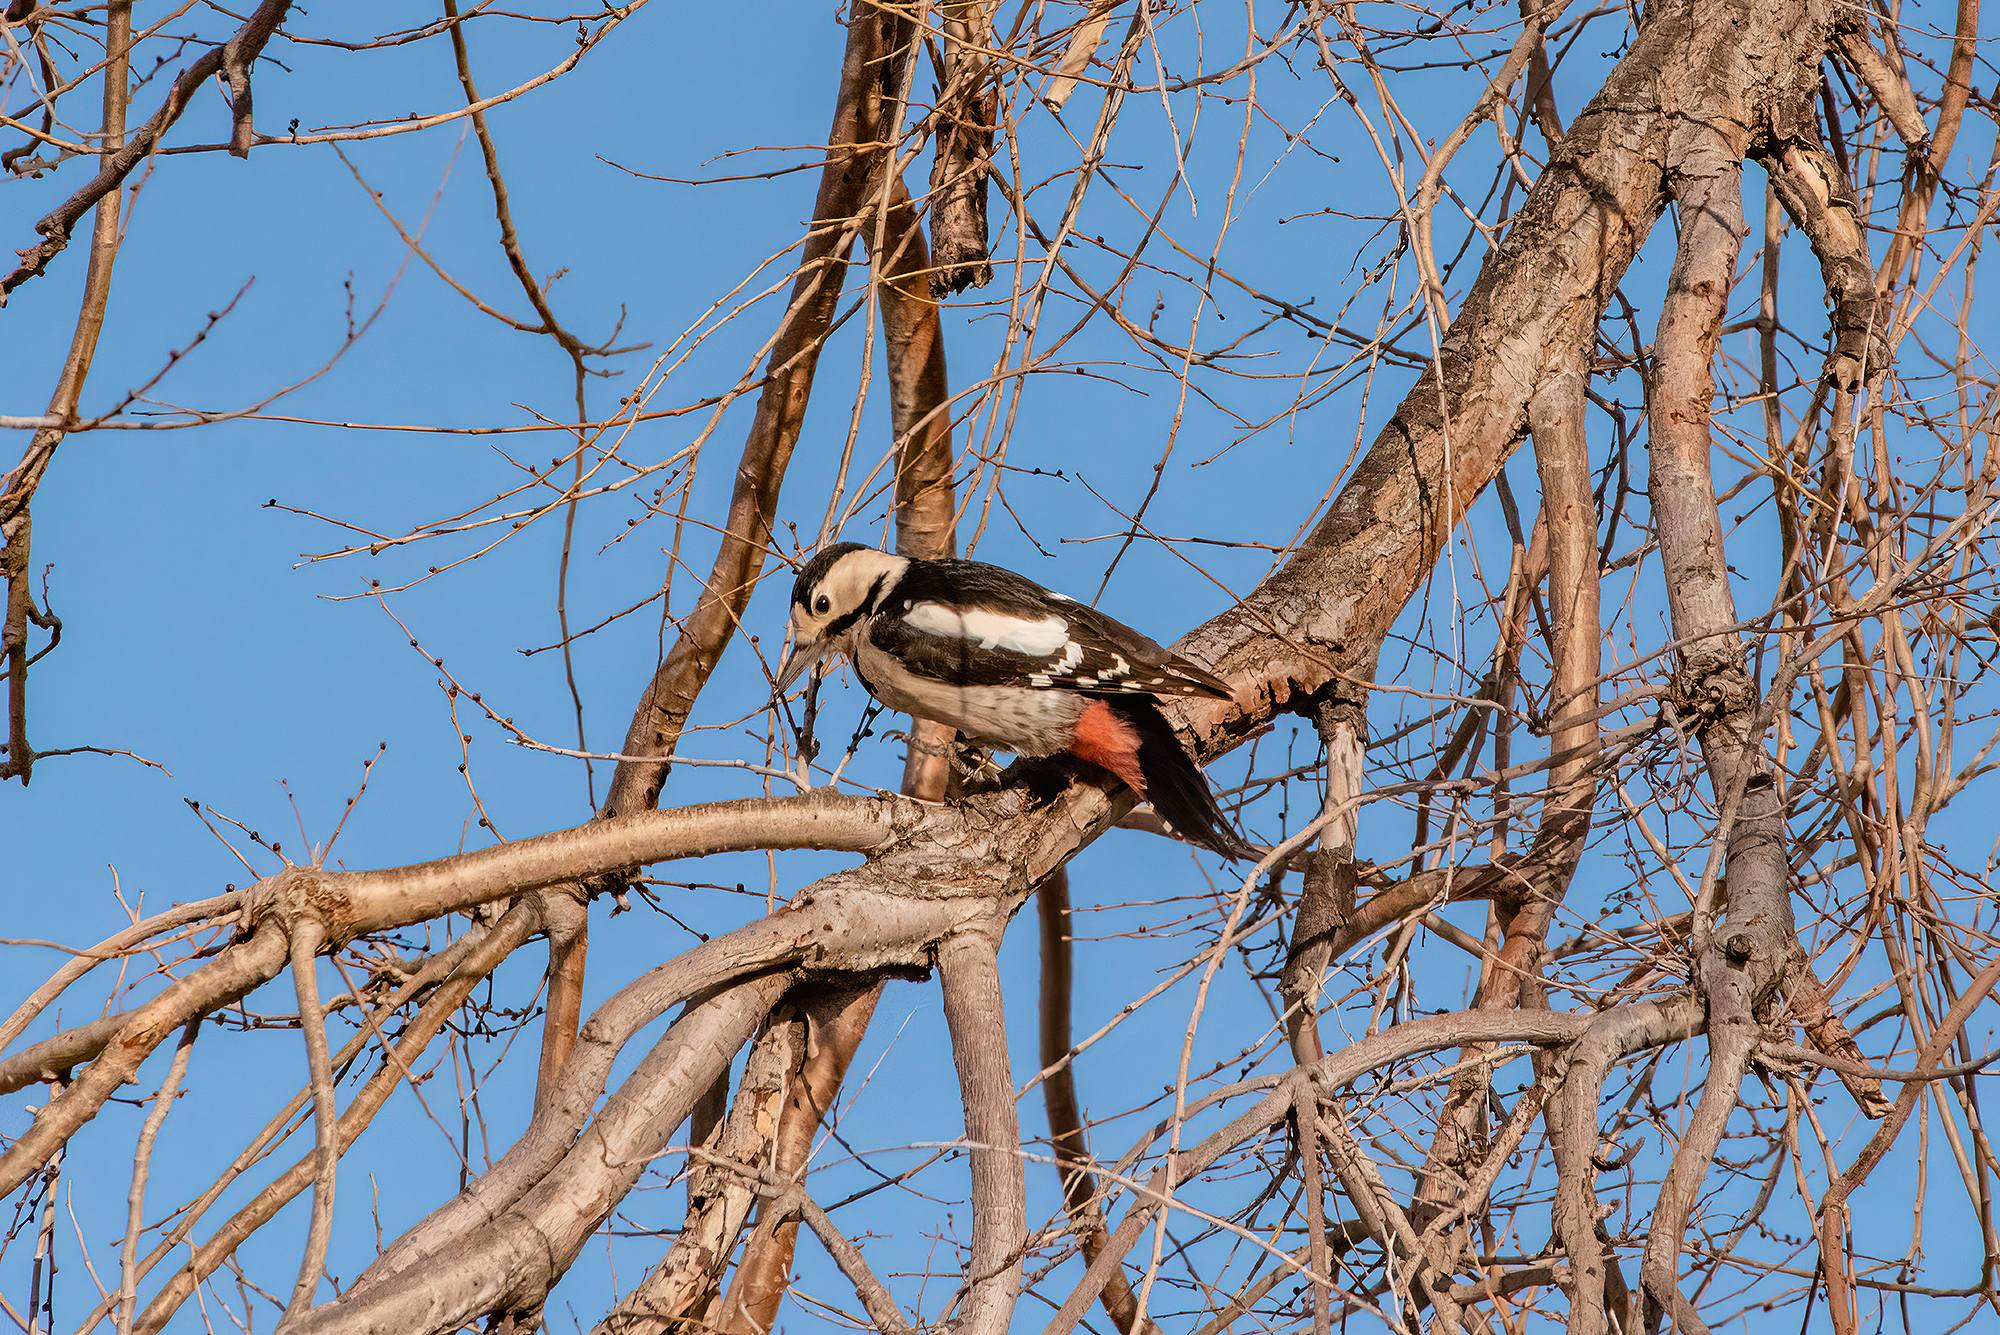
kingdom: Animalia
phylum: Chordata
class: Aves
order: Piciformes
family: Picidae
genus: Dendrocopos
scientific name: Dendrocopos syriacus
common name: Syrian woodpecker
